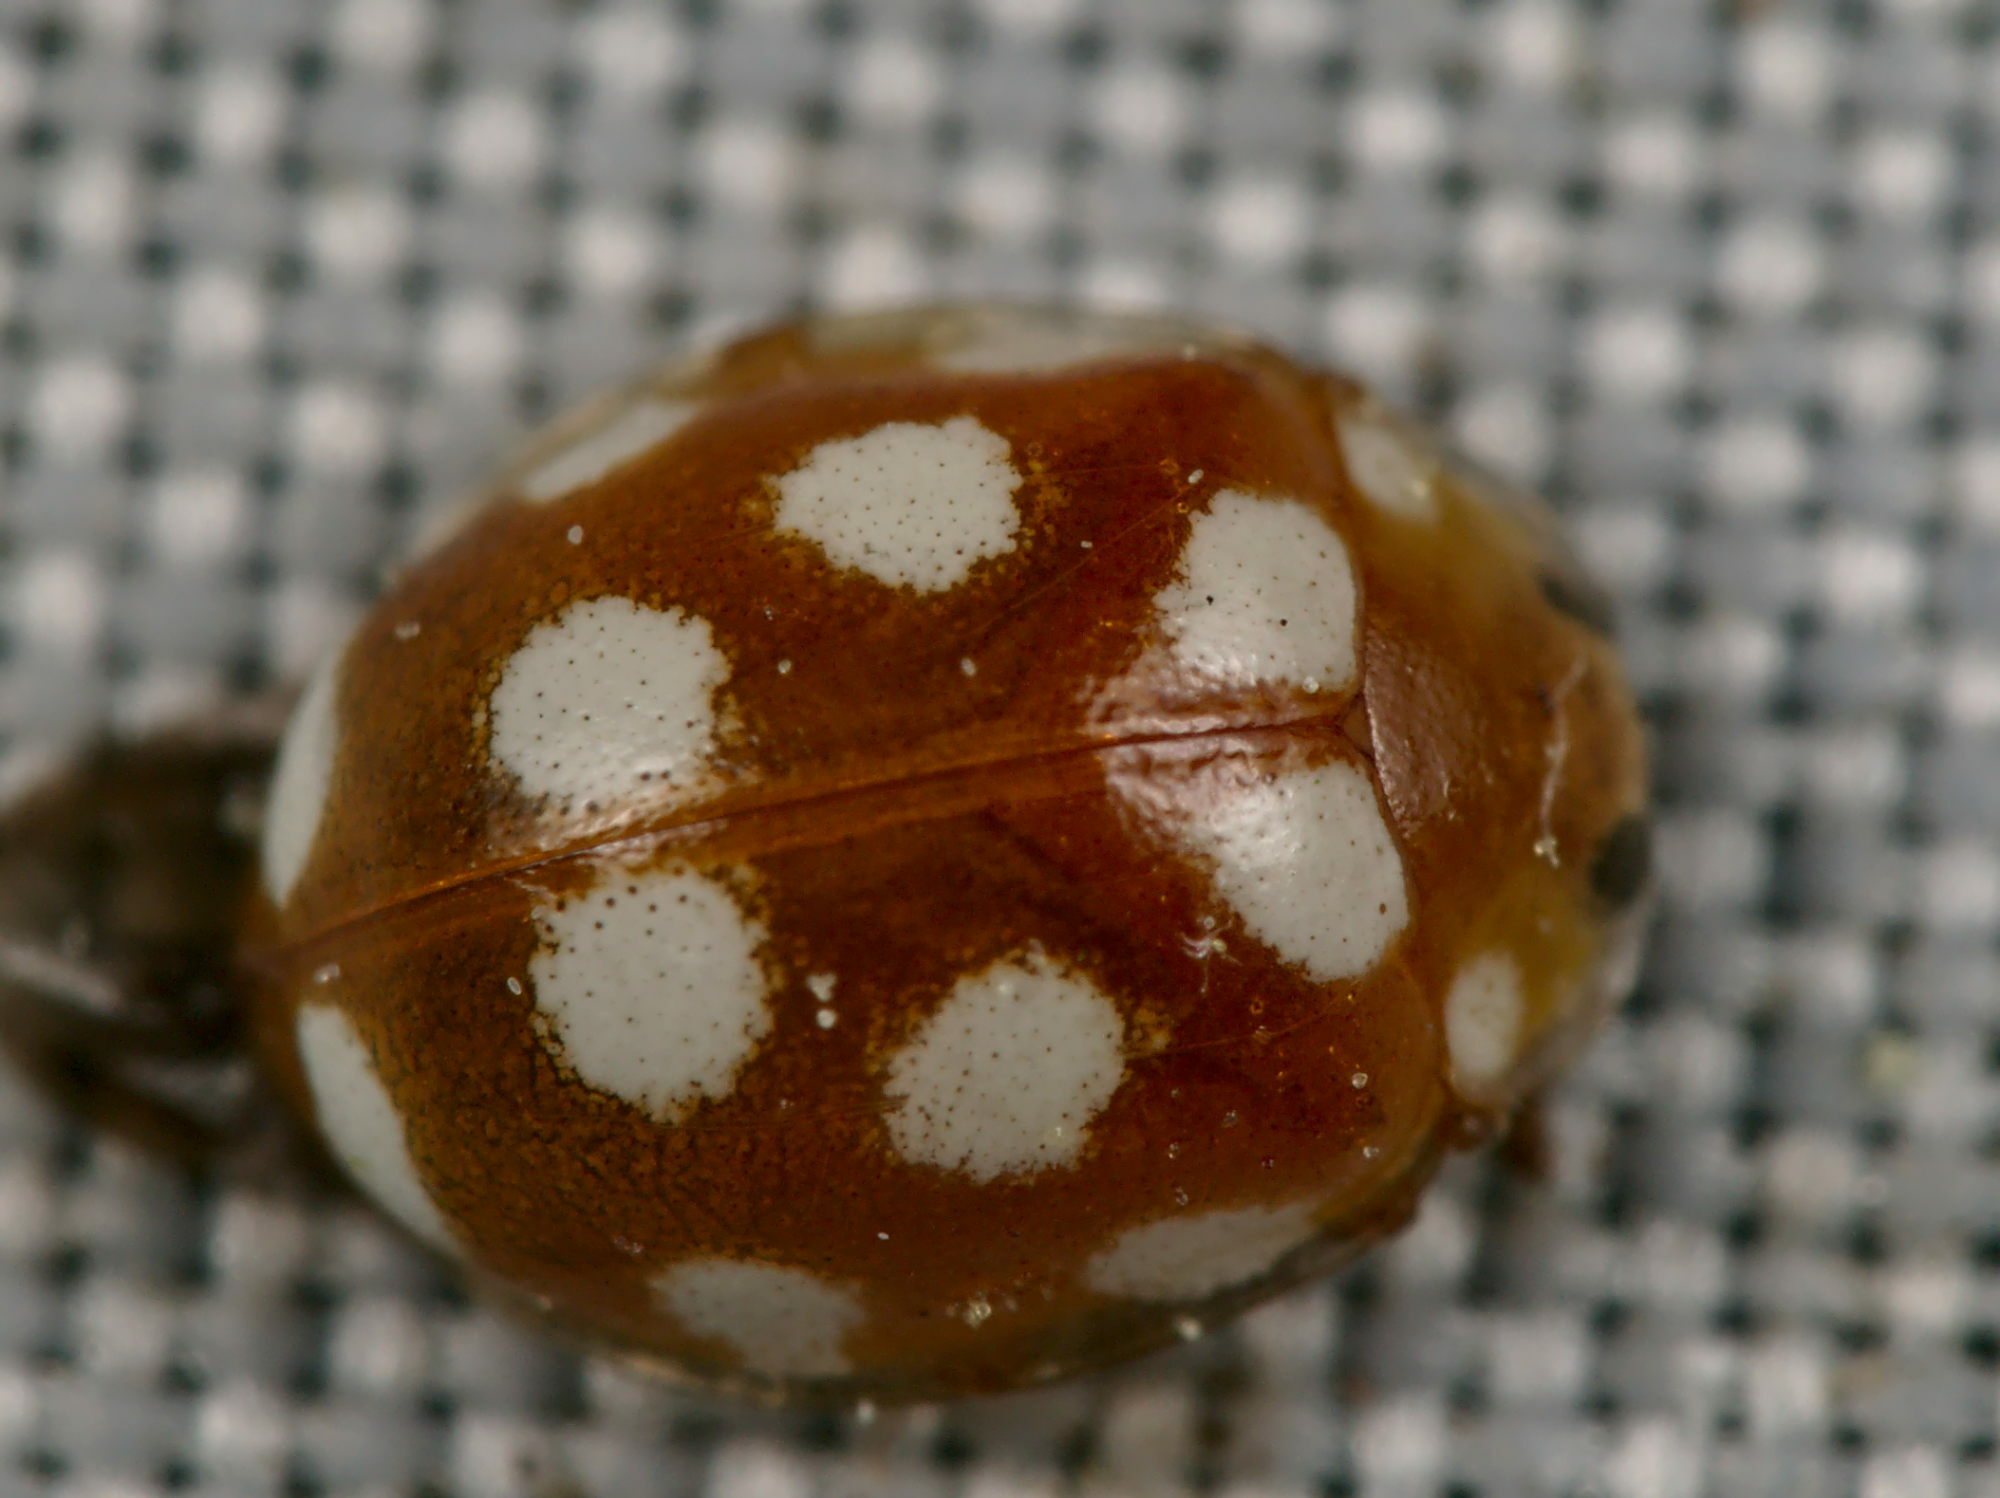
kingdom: Animalia
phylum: Arthropoda
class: Insecta
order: Coleoptera
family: Coccinellidae
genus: Vibidia
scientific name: Vibidia duodecimguttata
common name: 12-spot ladybird
